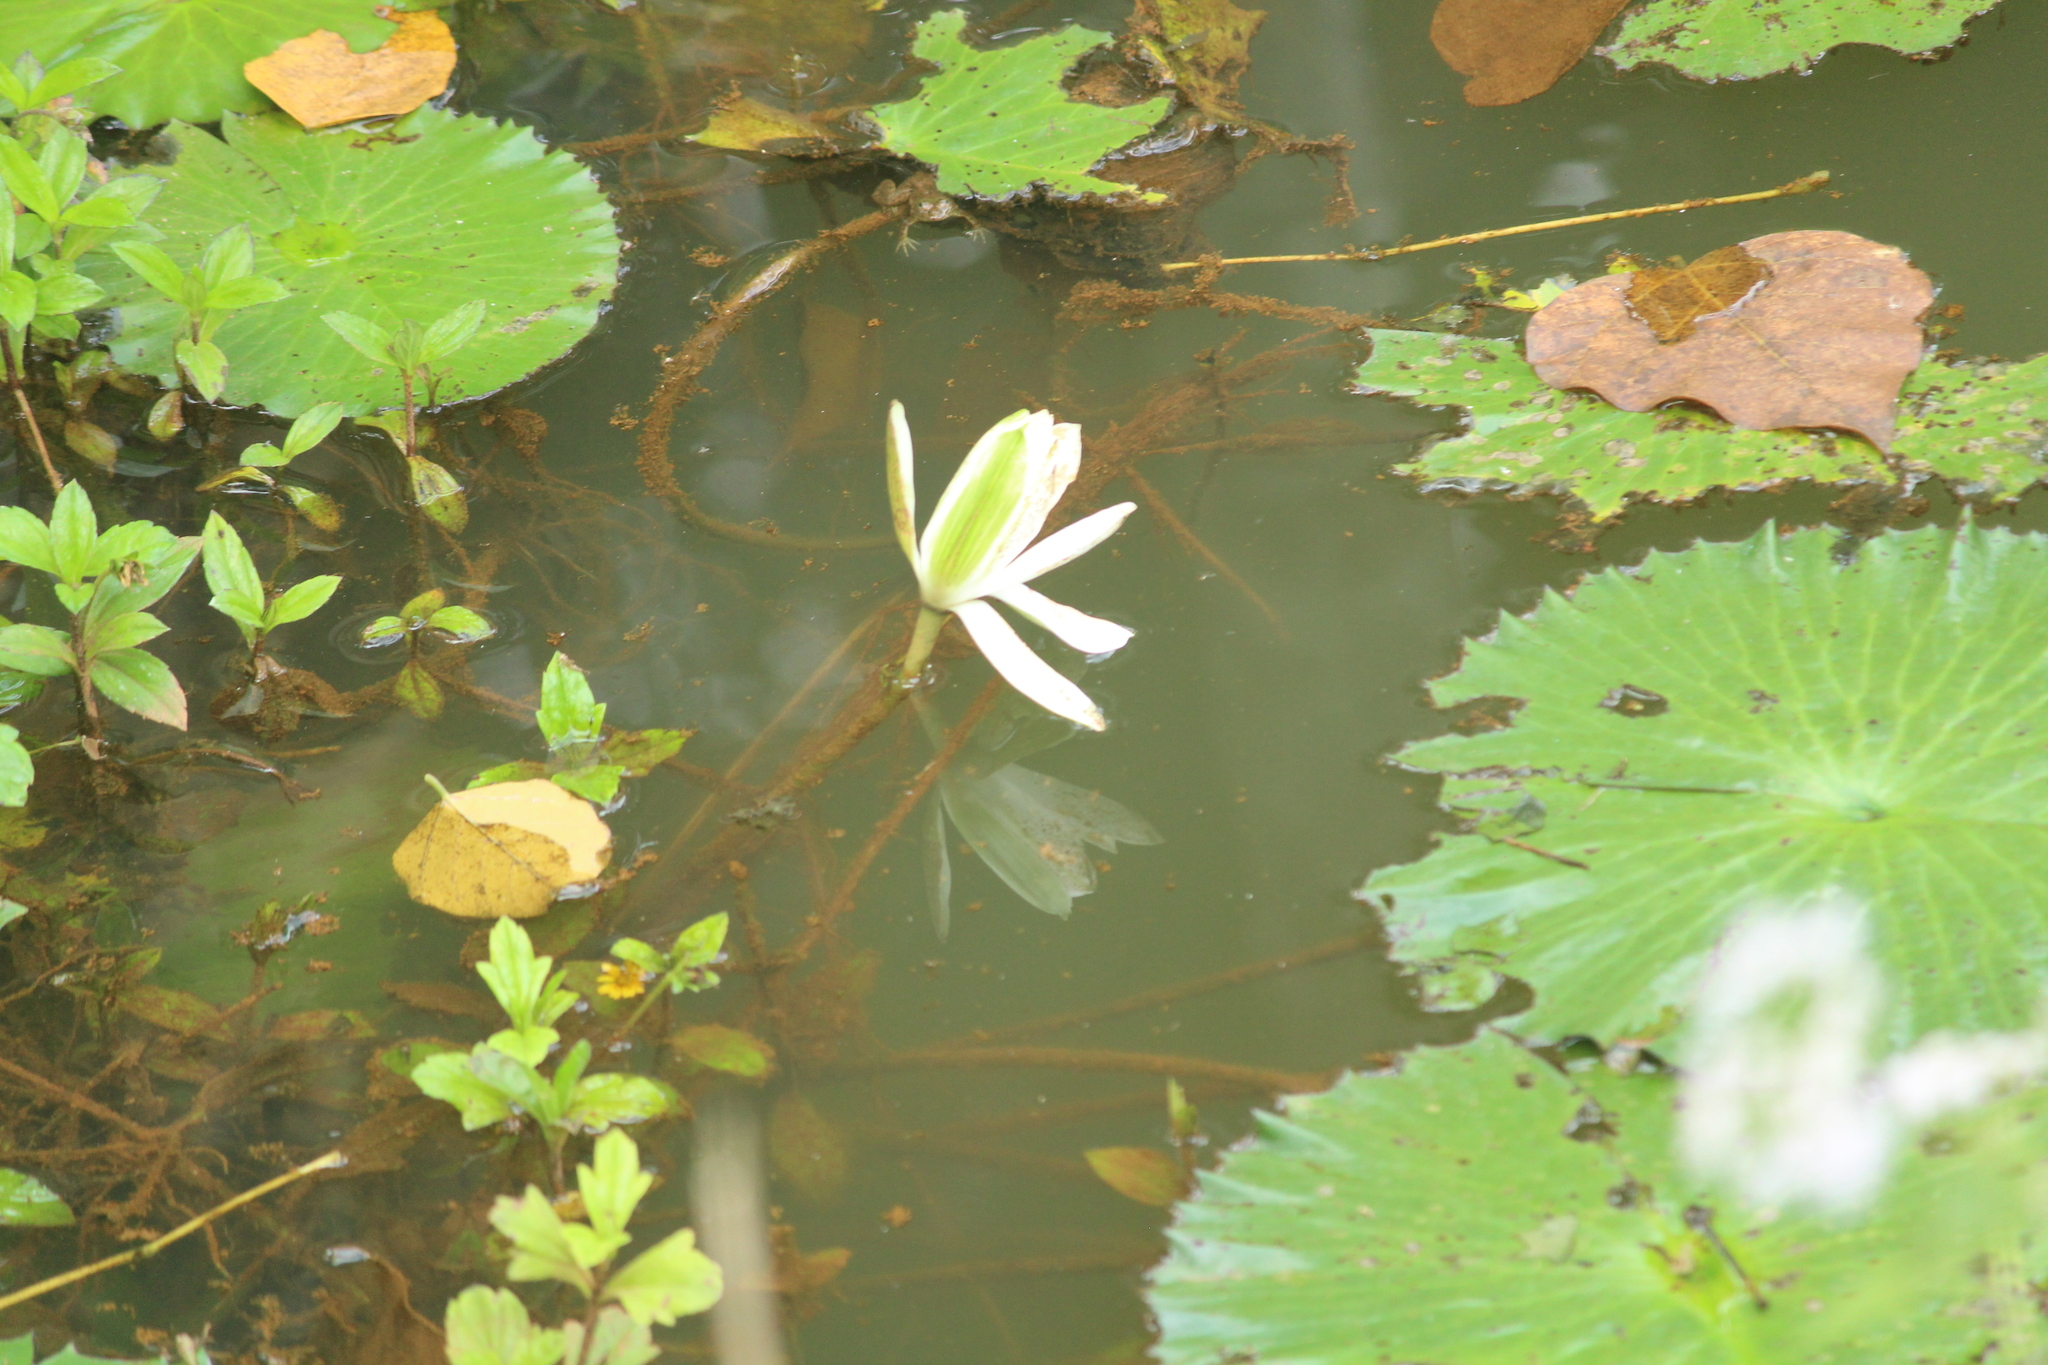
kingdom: Plantae
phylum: Tracheophyta
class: Magnoliopsida
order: Nymphaeales
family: Nymphaeaceae
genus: Nymphaea
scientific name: Nymphaea alba
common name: White water-lily
